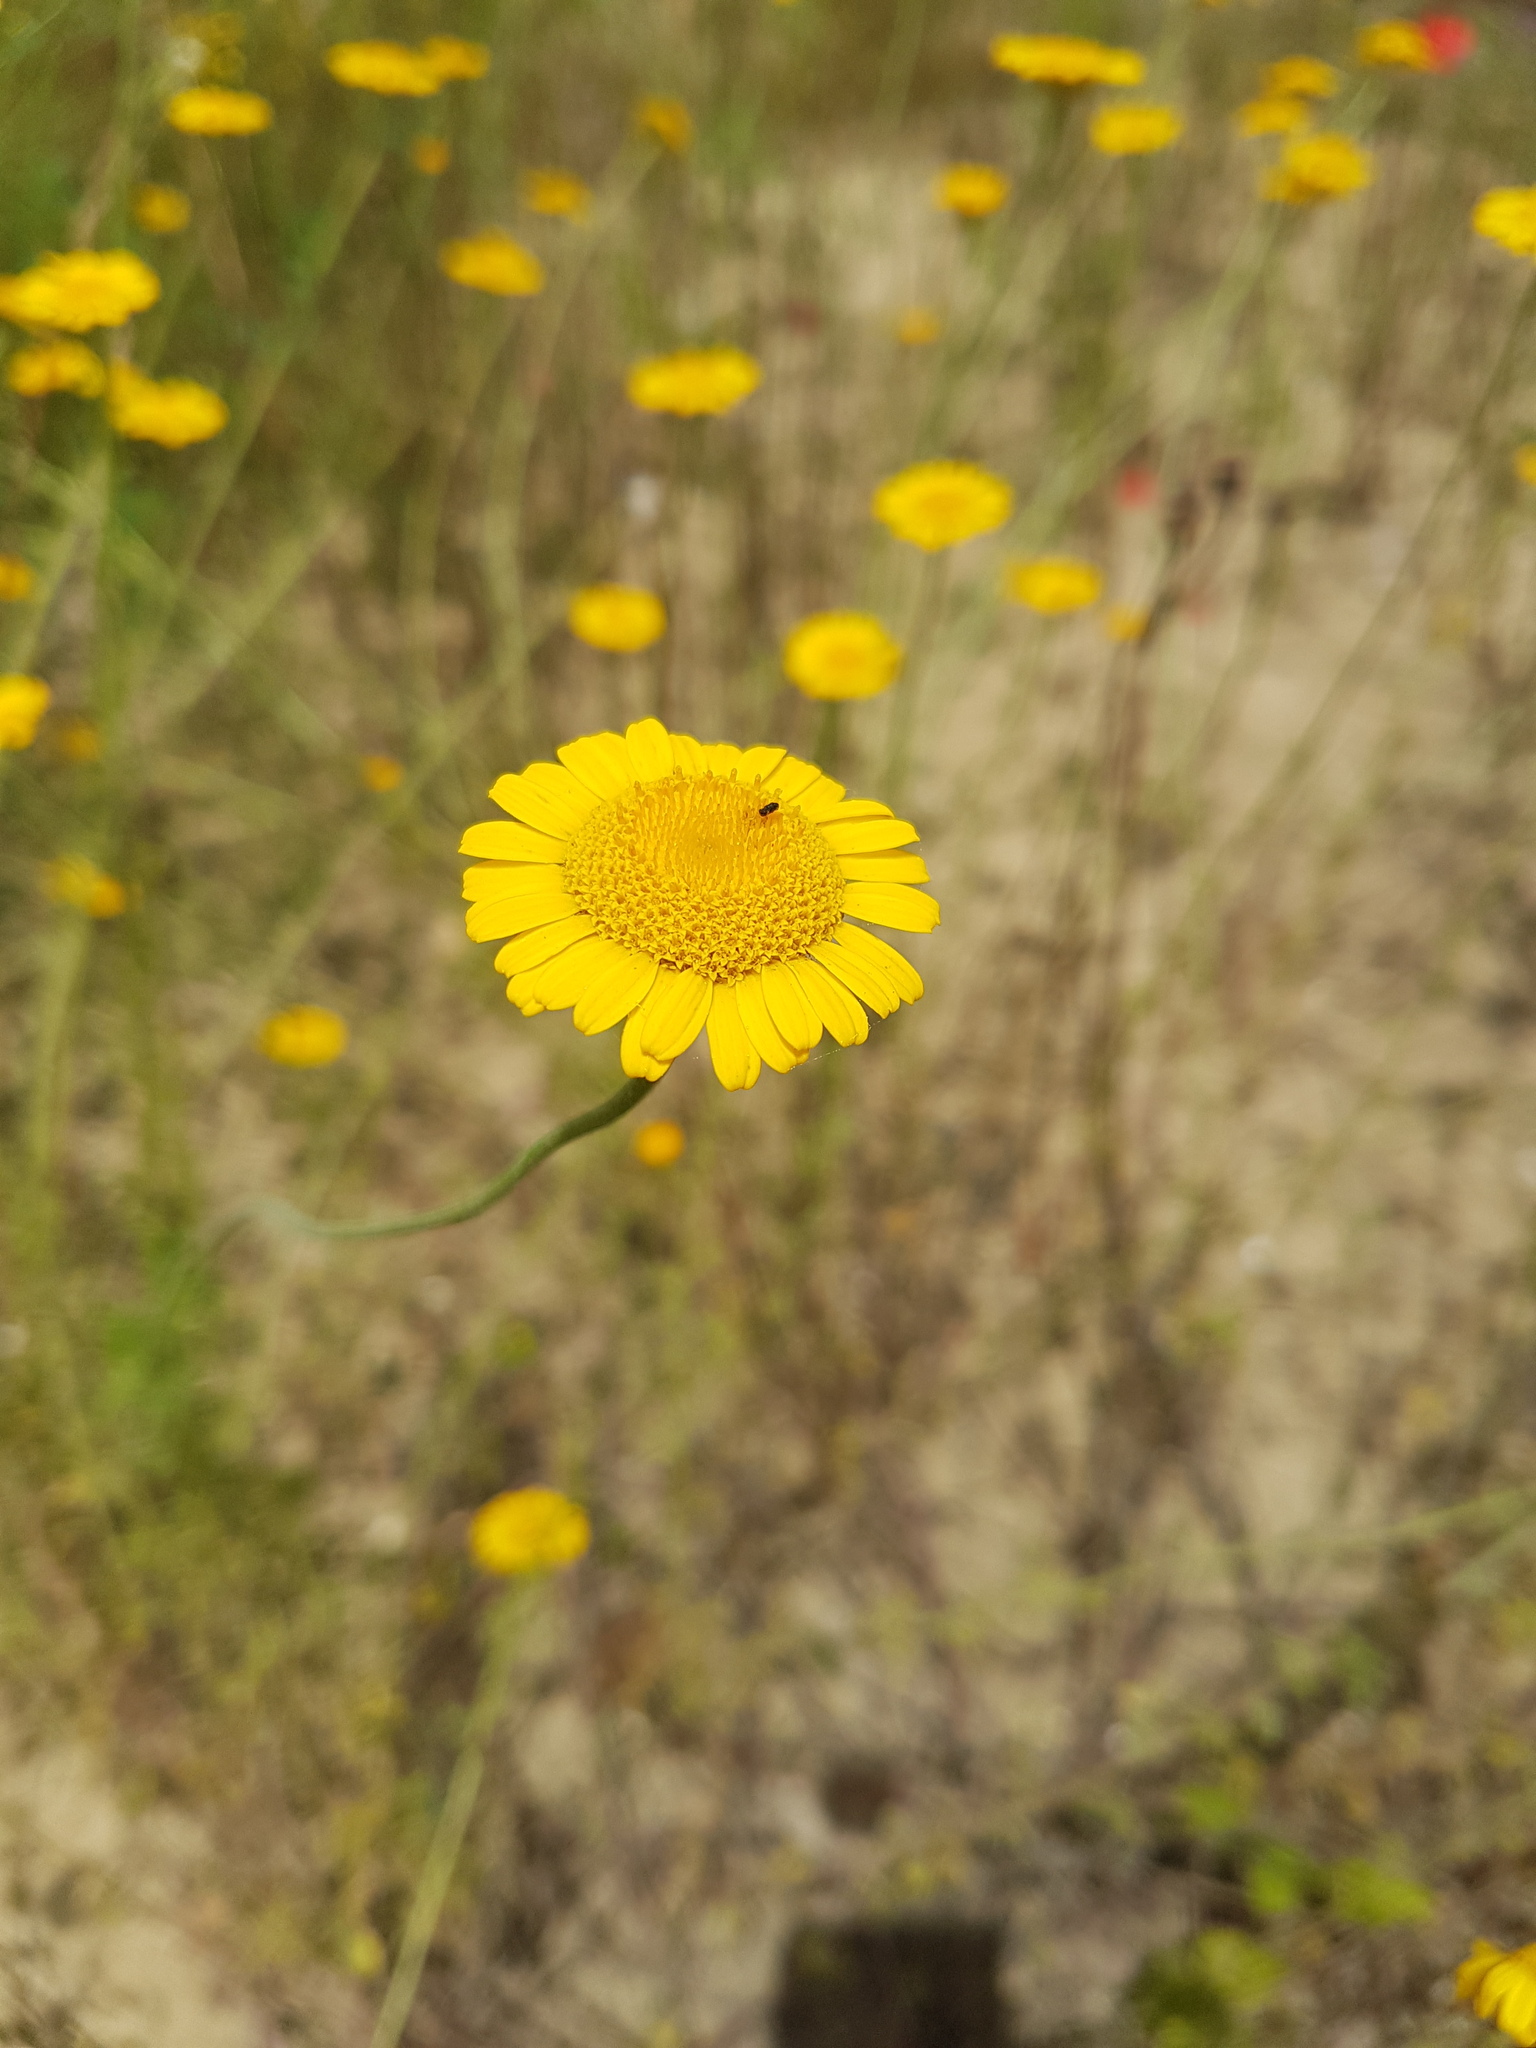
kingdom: Plantae
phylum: Tracheophyta
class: Magnoliopsida
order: Asterales
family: Asteraceae
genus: Cota
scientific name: Cota tinctoria
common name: Golden chamomile
